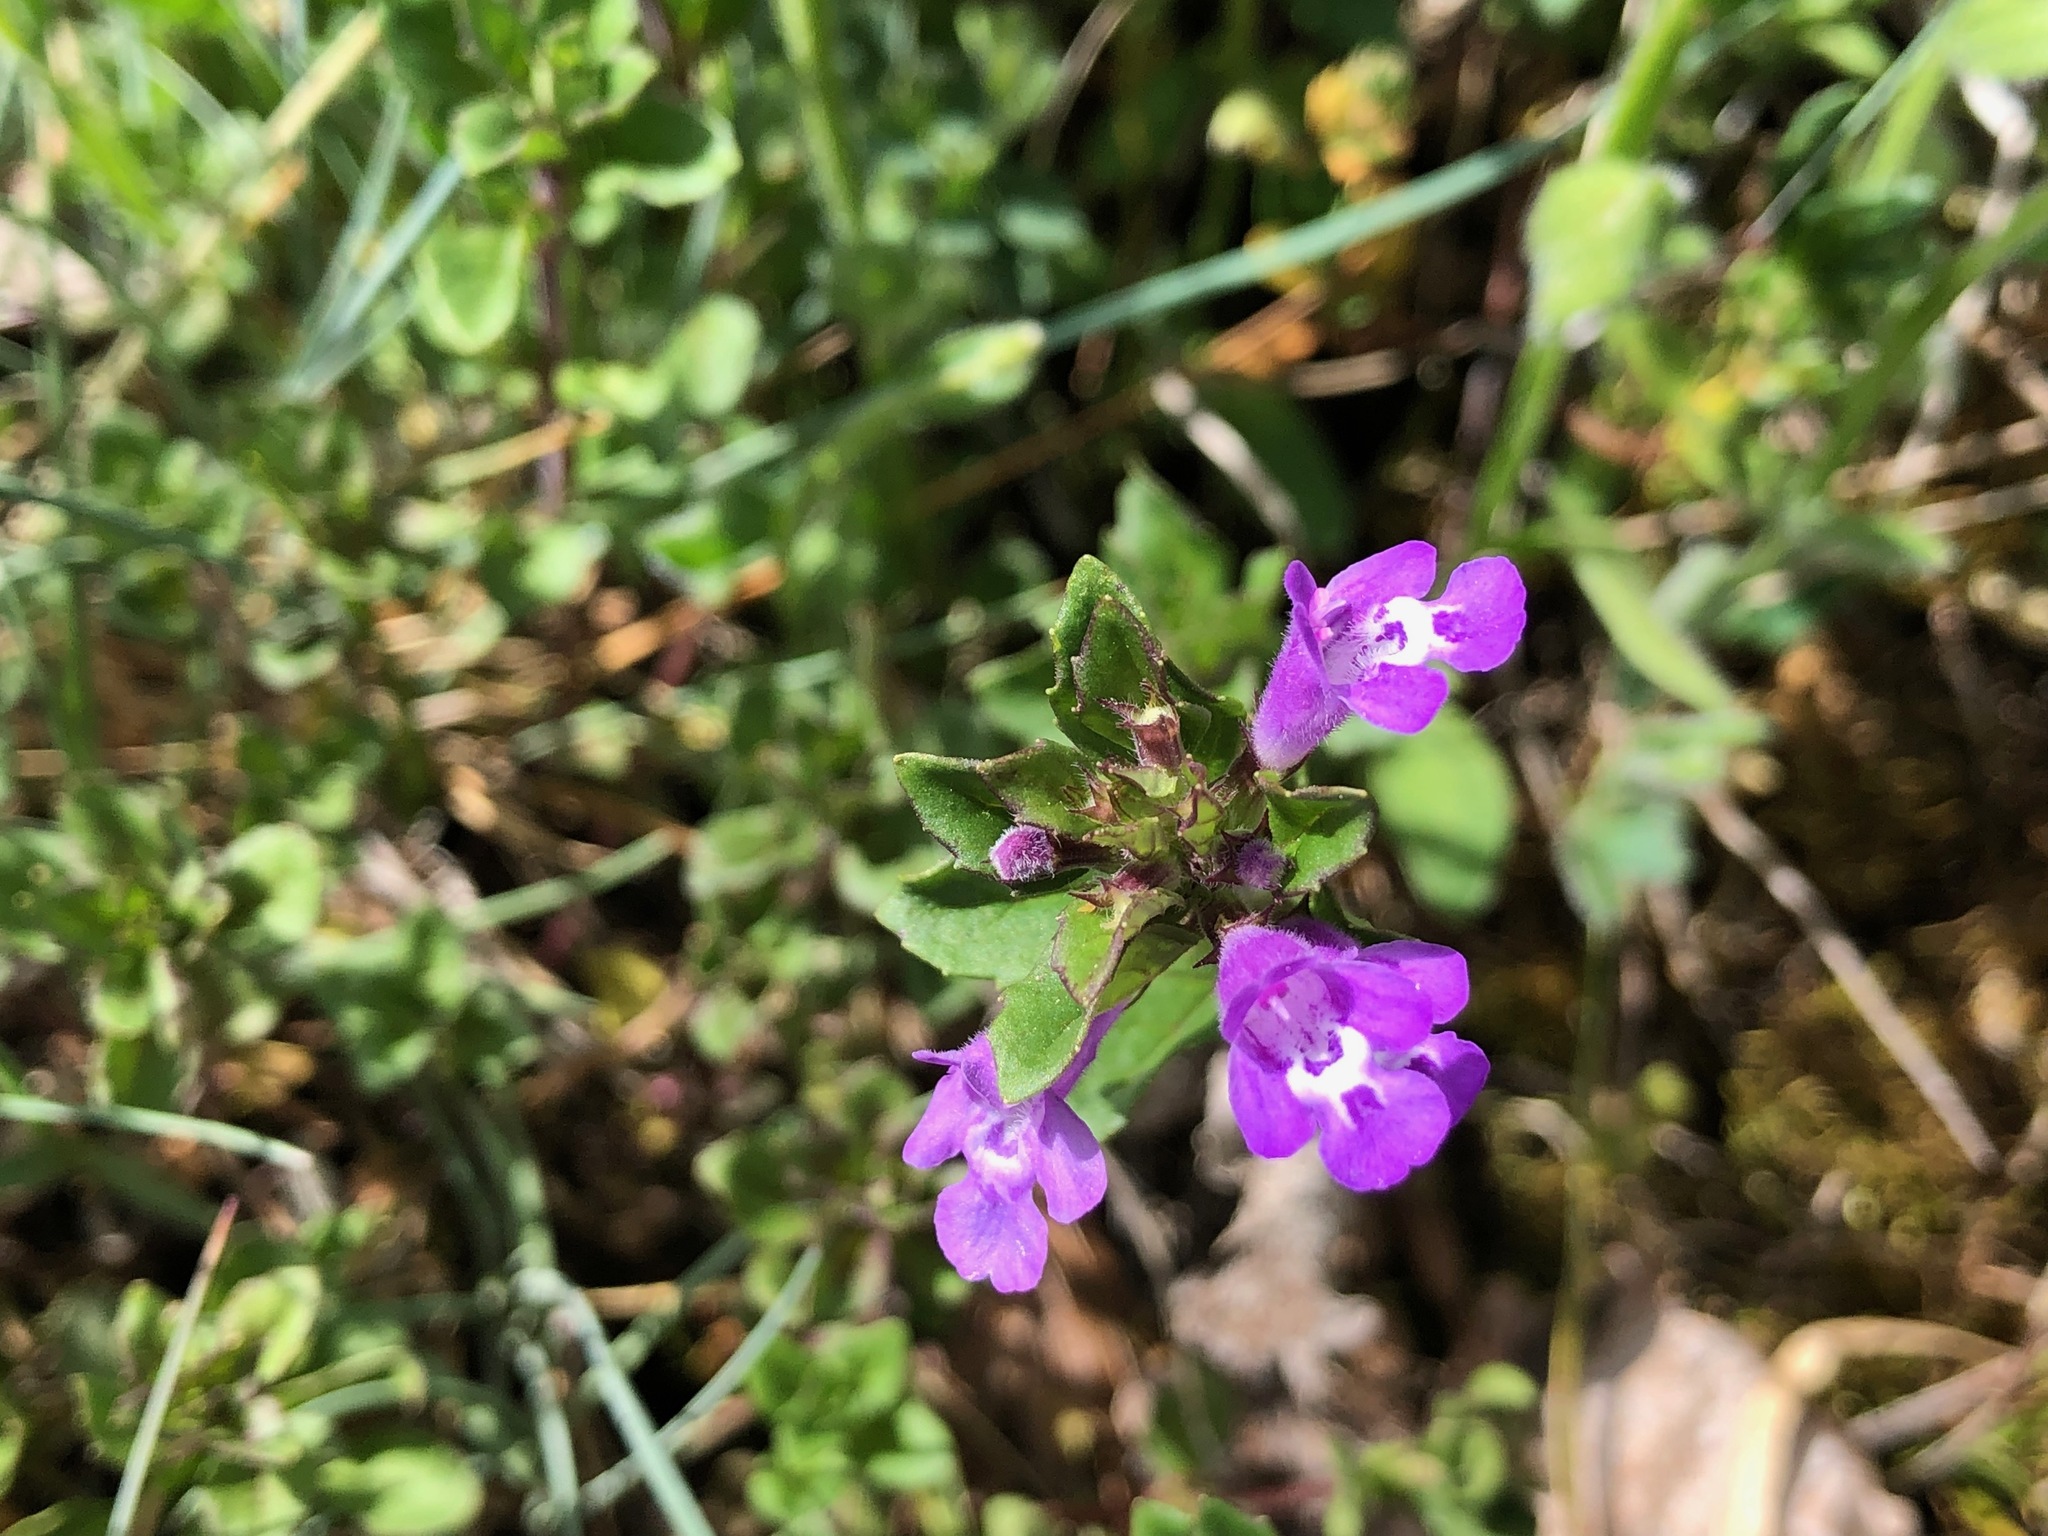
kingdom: Plantae
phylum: Tracheophyta
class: Magnoliopsida
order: Lamiales
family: Lamiaceae
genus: Clinopodium
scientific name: Clinopodium acinos
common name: Basil thyme
